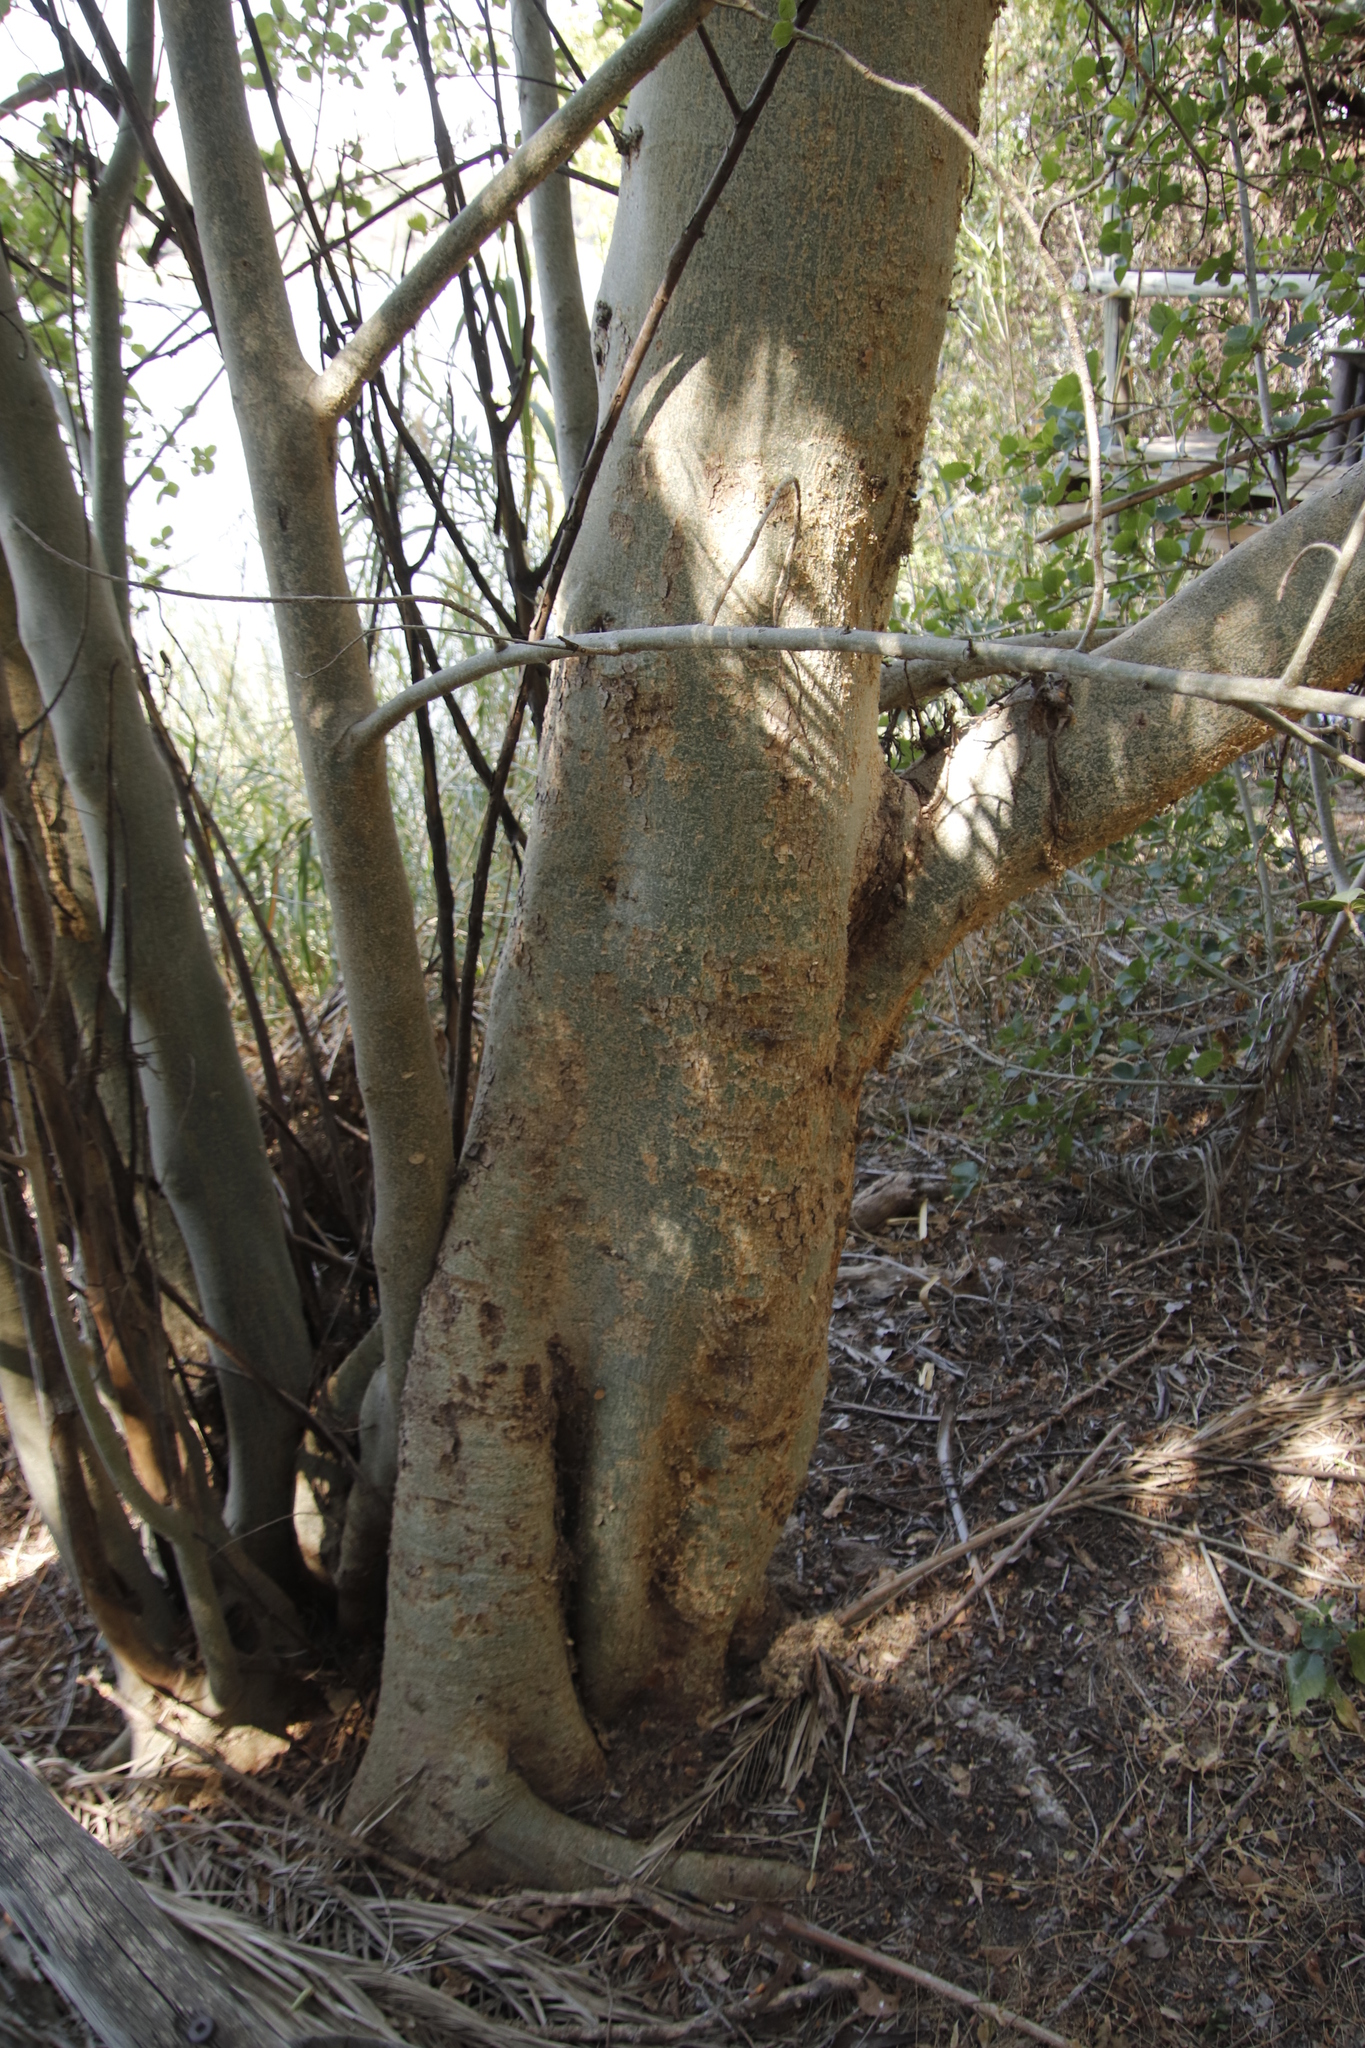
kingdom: Plantae
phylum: Tracheophyta
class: Magnoliopsida
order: Rosales
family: Moraceae
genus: Ficus
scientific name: Ficus sycomorus
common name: Sycomore
